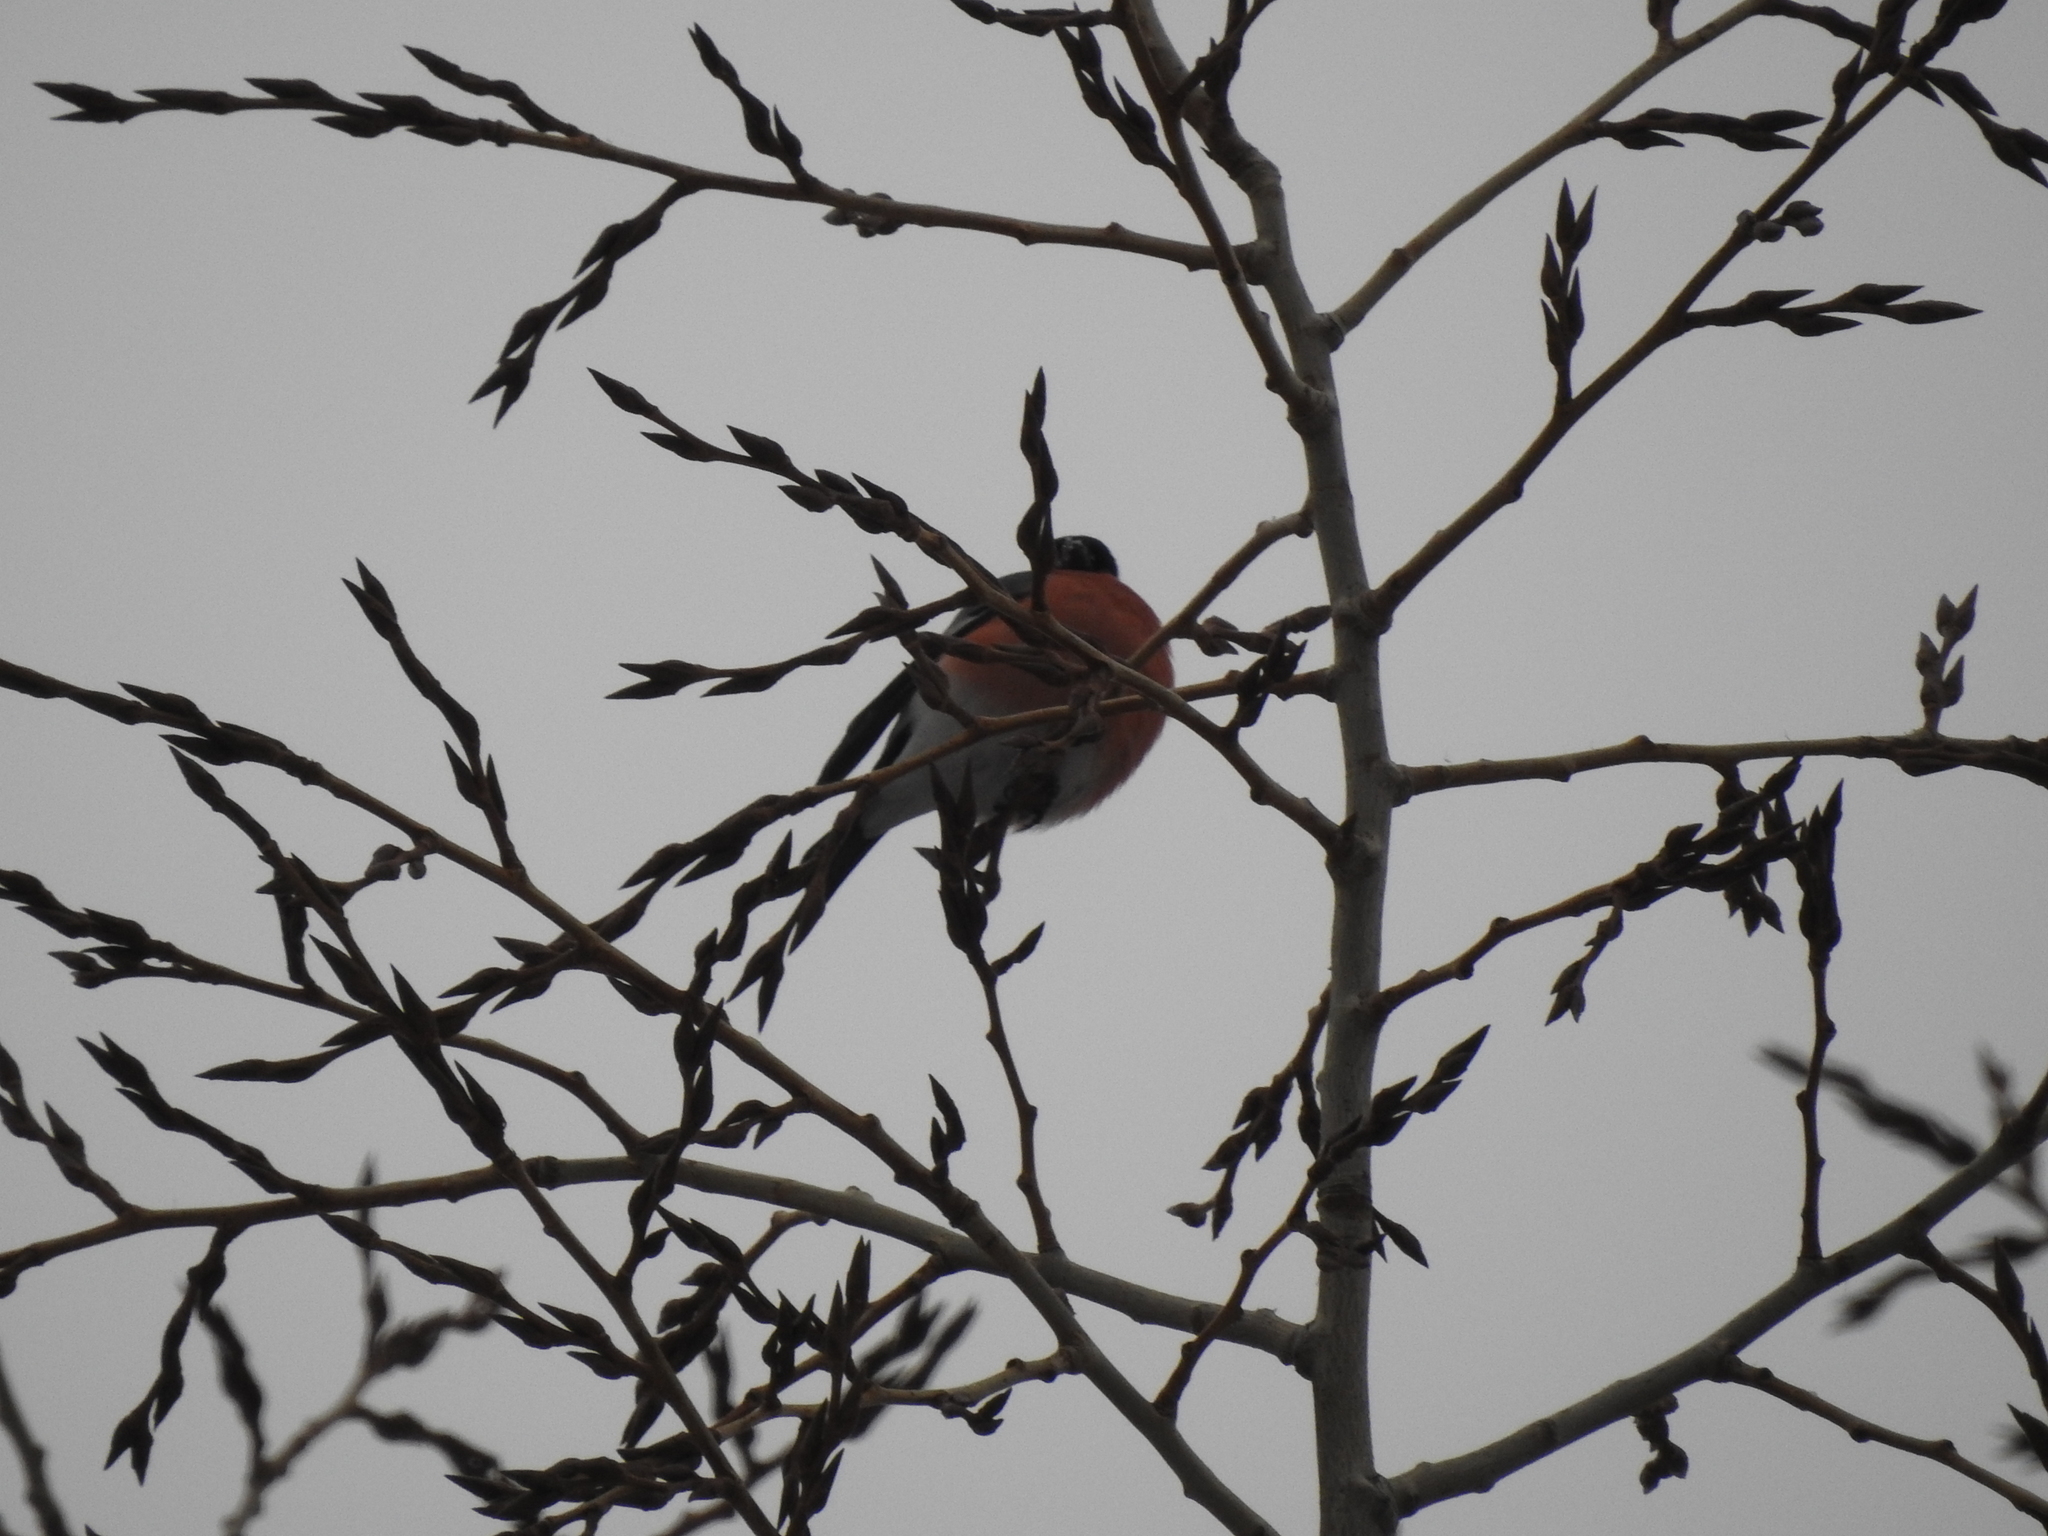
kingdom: Animalia
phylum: Chordata
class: Aves
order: Passeriformes
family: Fringillidae
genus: Pyrrhula
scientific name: Pyrrhula pyrrhula
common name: Eurasian bullfinch
